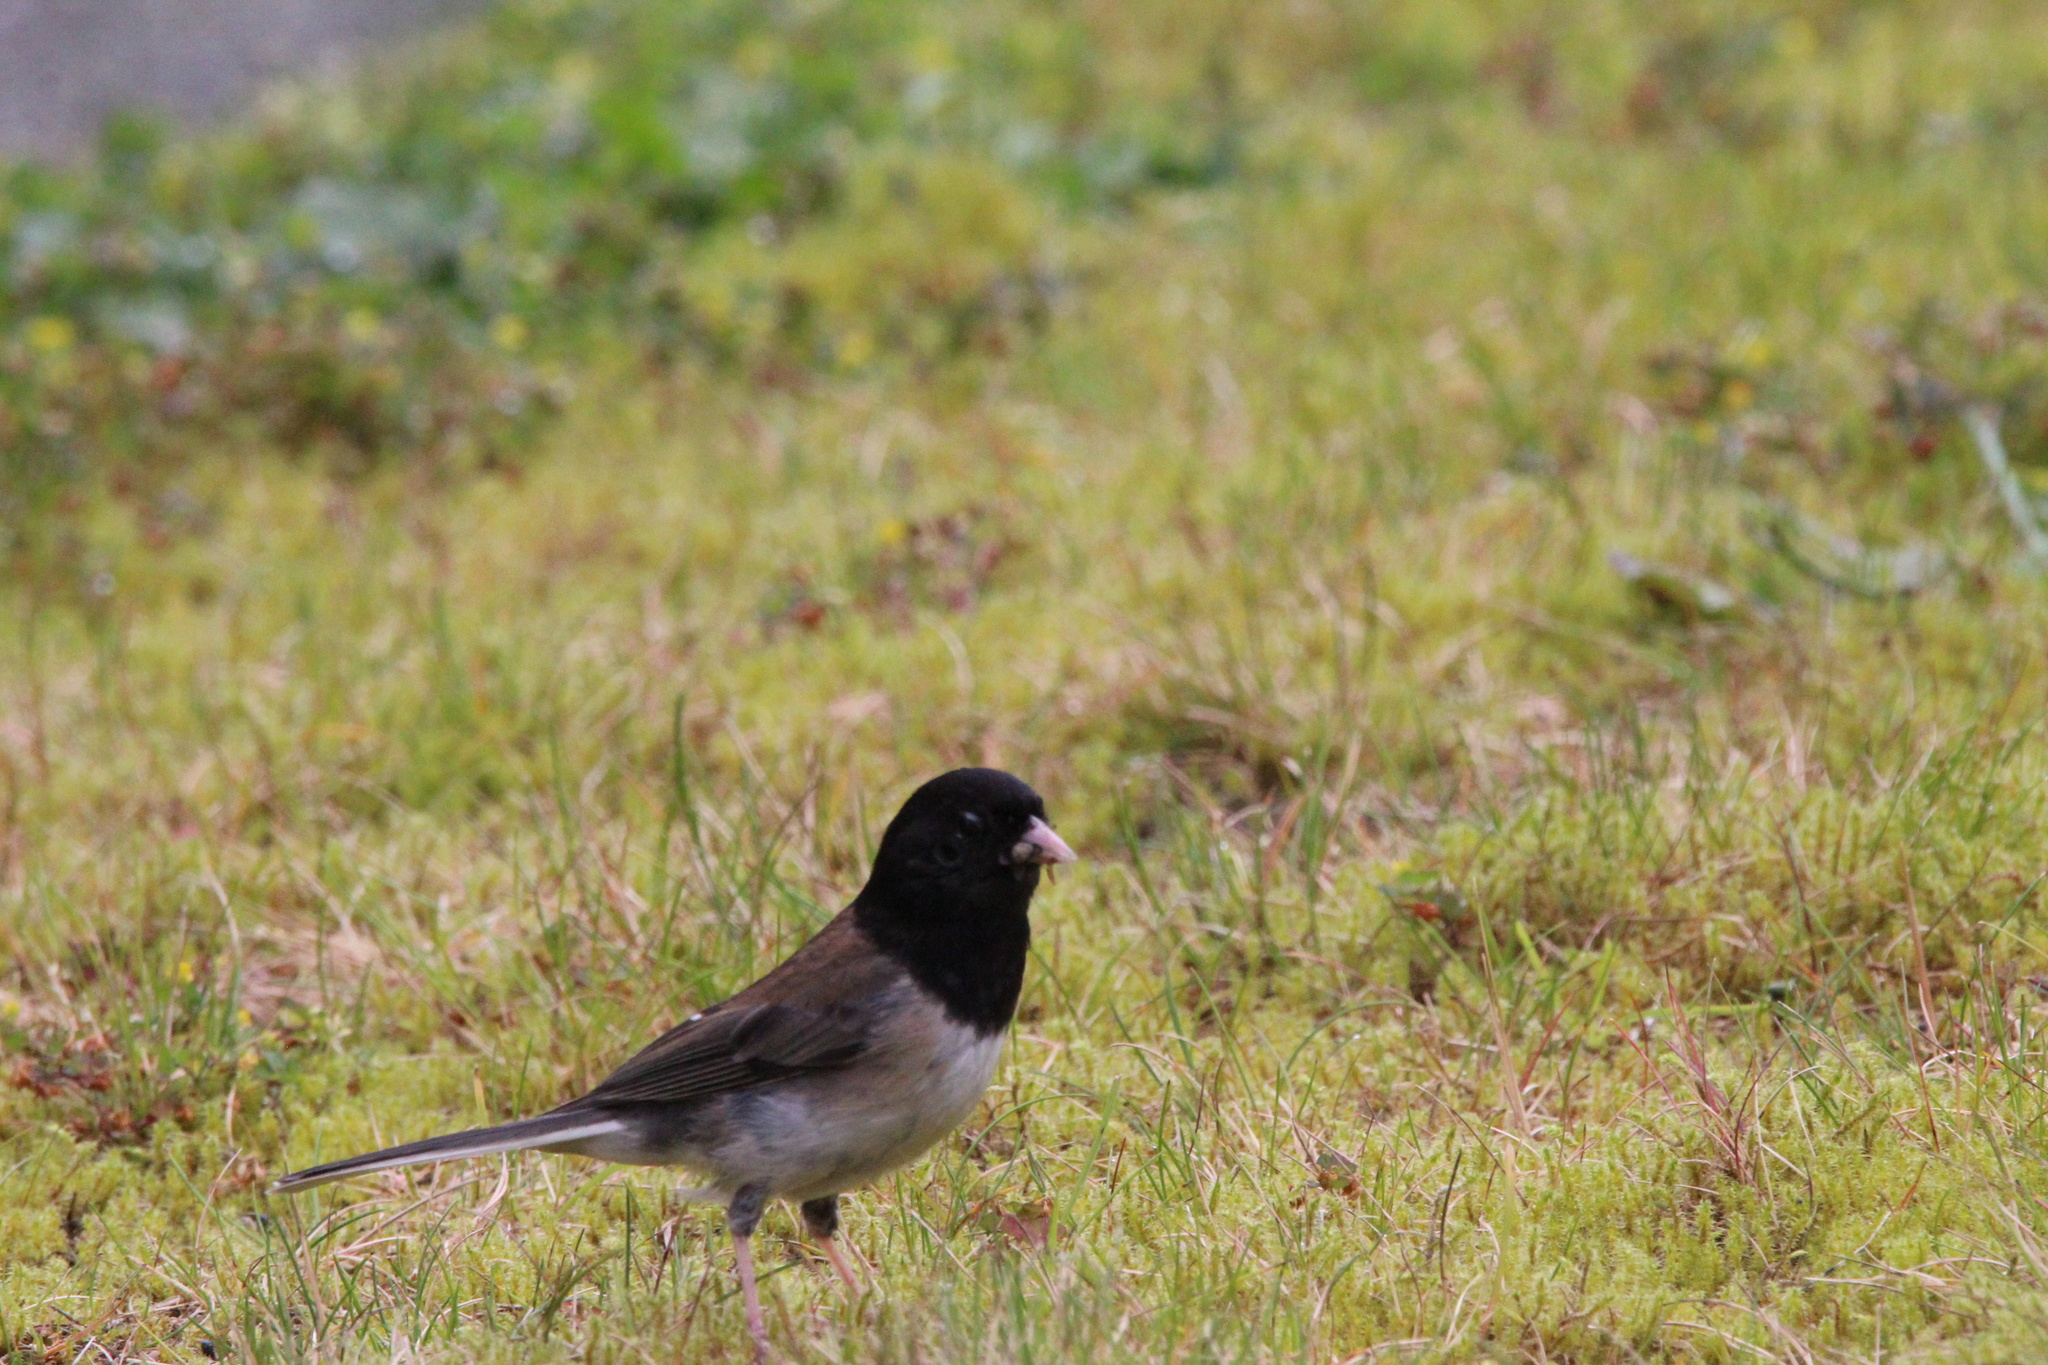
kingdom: Animalia
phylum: Chordata
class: Aves
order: Passeriformes
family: Passerellidae
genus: Junco
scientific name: Junco hyemalis
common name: Dark-eyed junco
